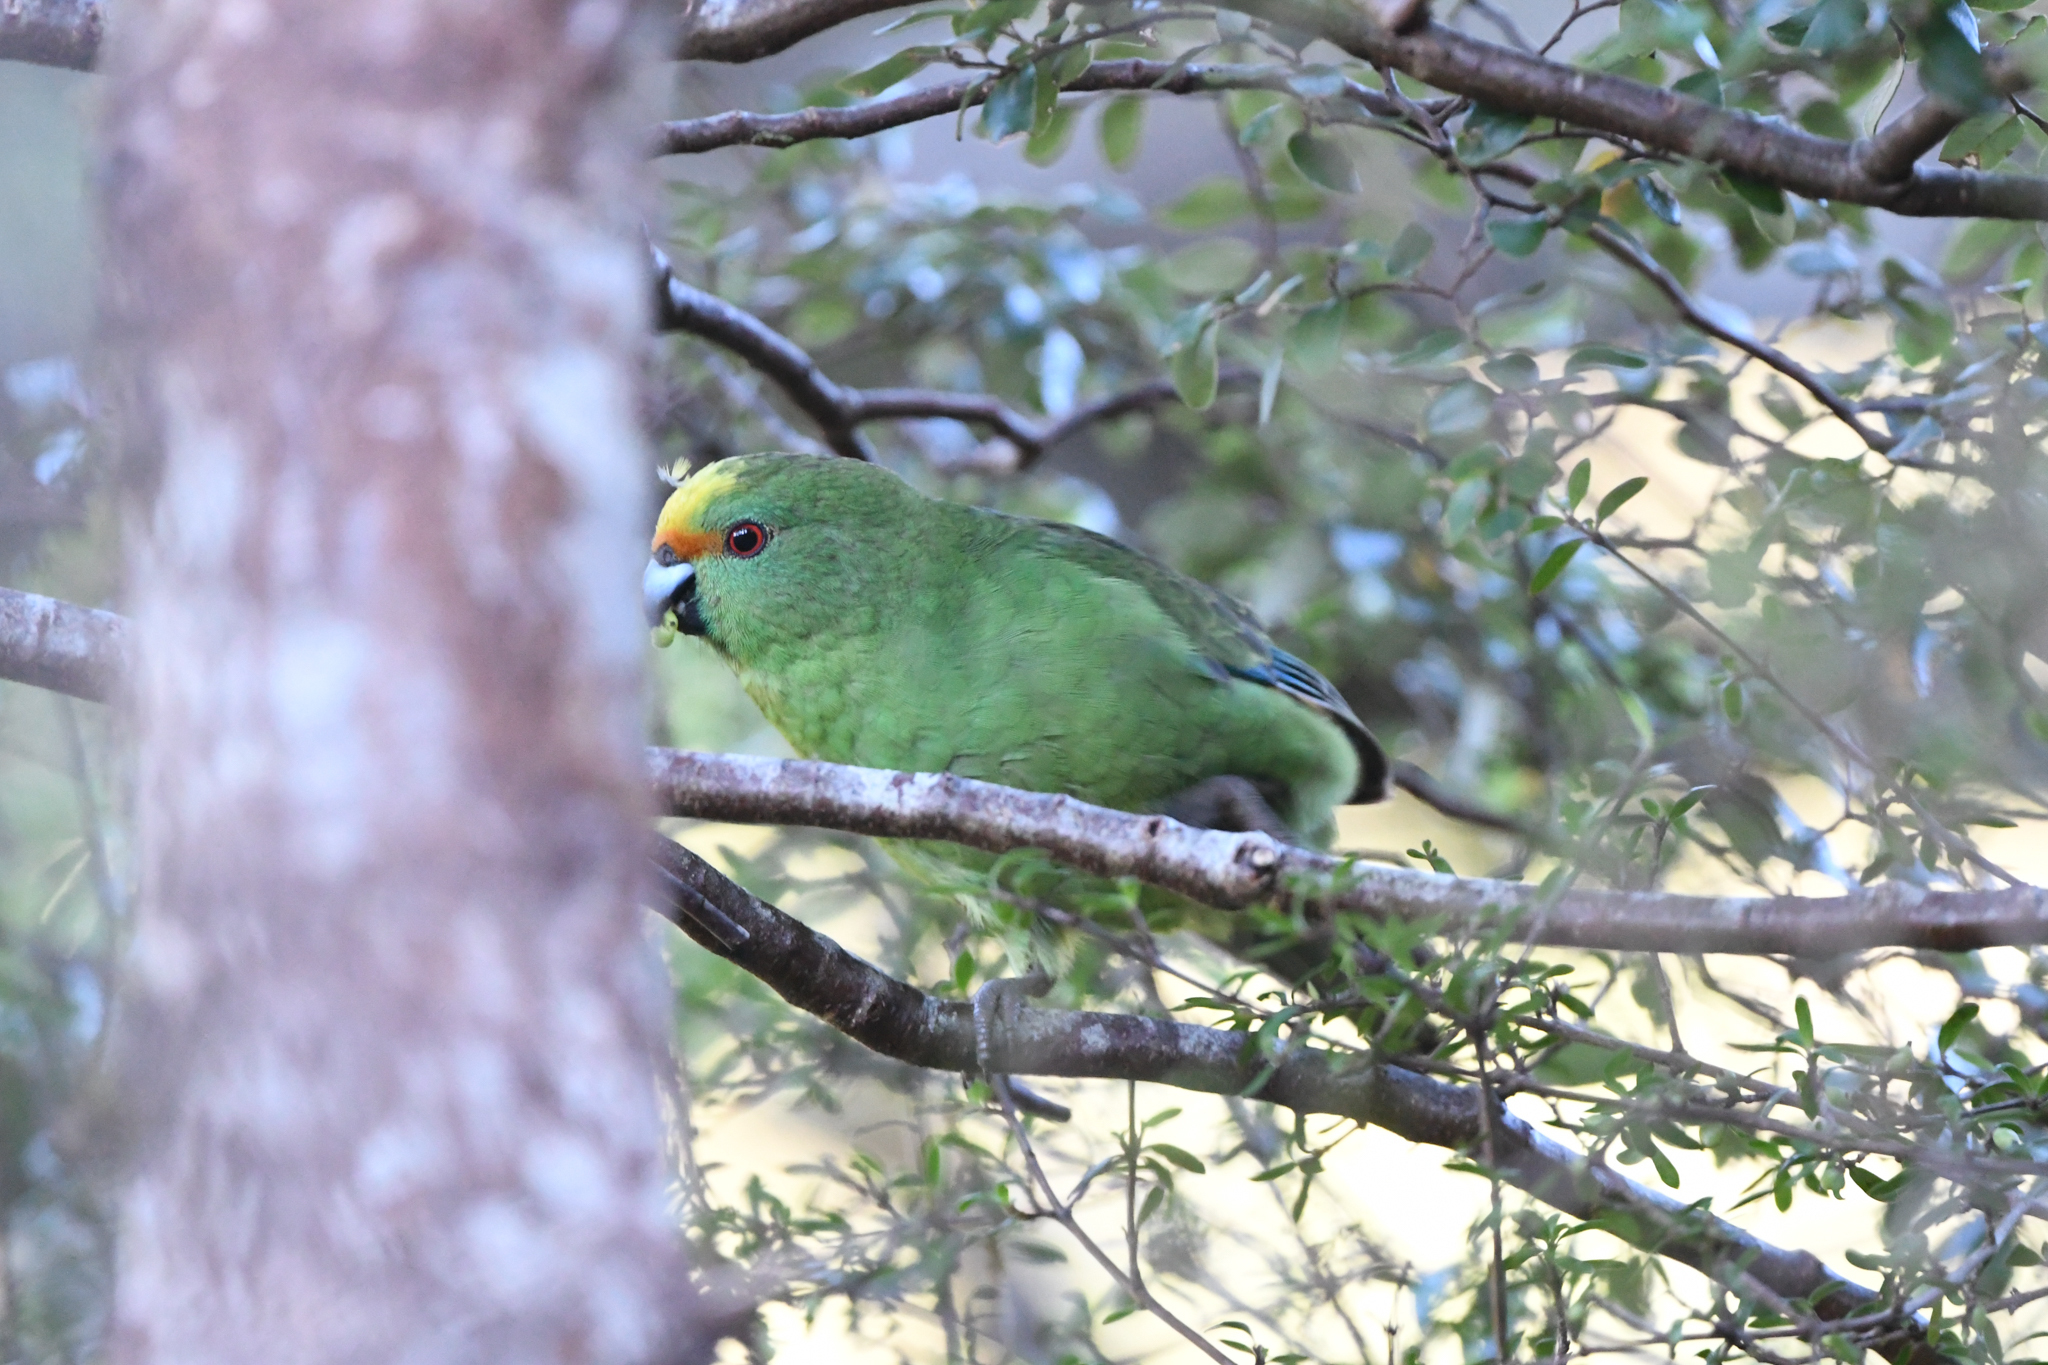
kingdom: Animalia
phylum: Chordata
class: Aves
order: Psittaciformes
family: Psittacidae
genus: Cyanoramphus
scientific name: Cyanoramphus malherbi
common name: Malherbe's parakeet
